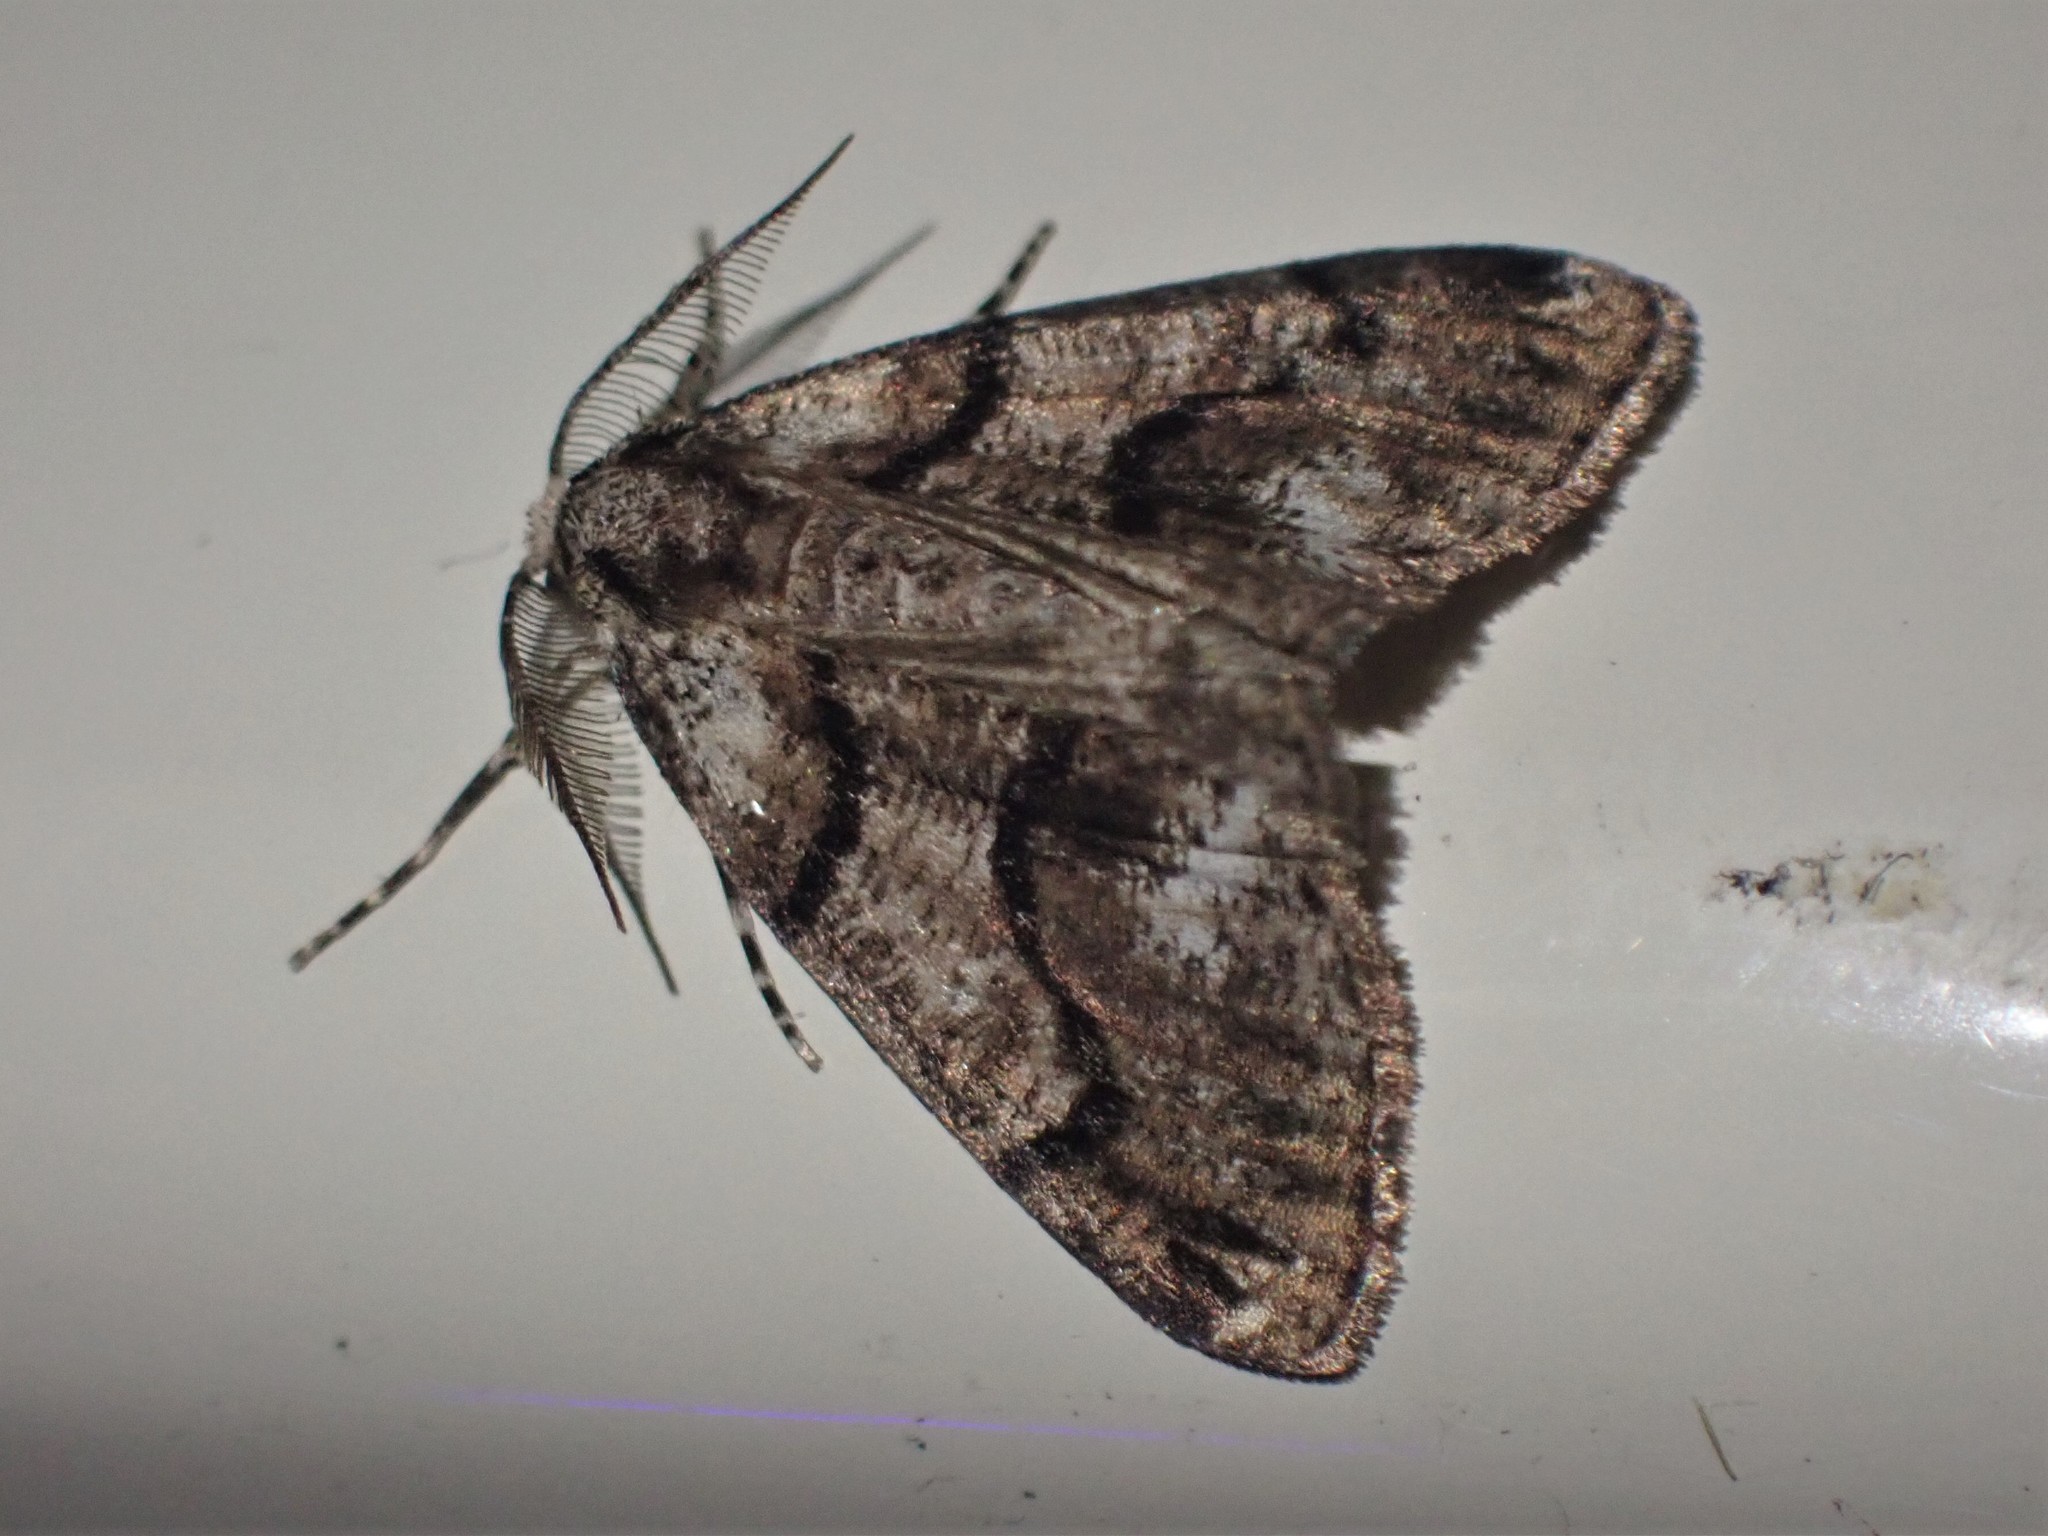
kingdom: Animalia
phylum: Arthropoda
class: Insecta
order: Lepidoptera
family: Geometridae
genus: Gabriola
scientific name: Gabriola dyari
